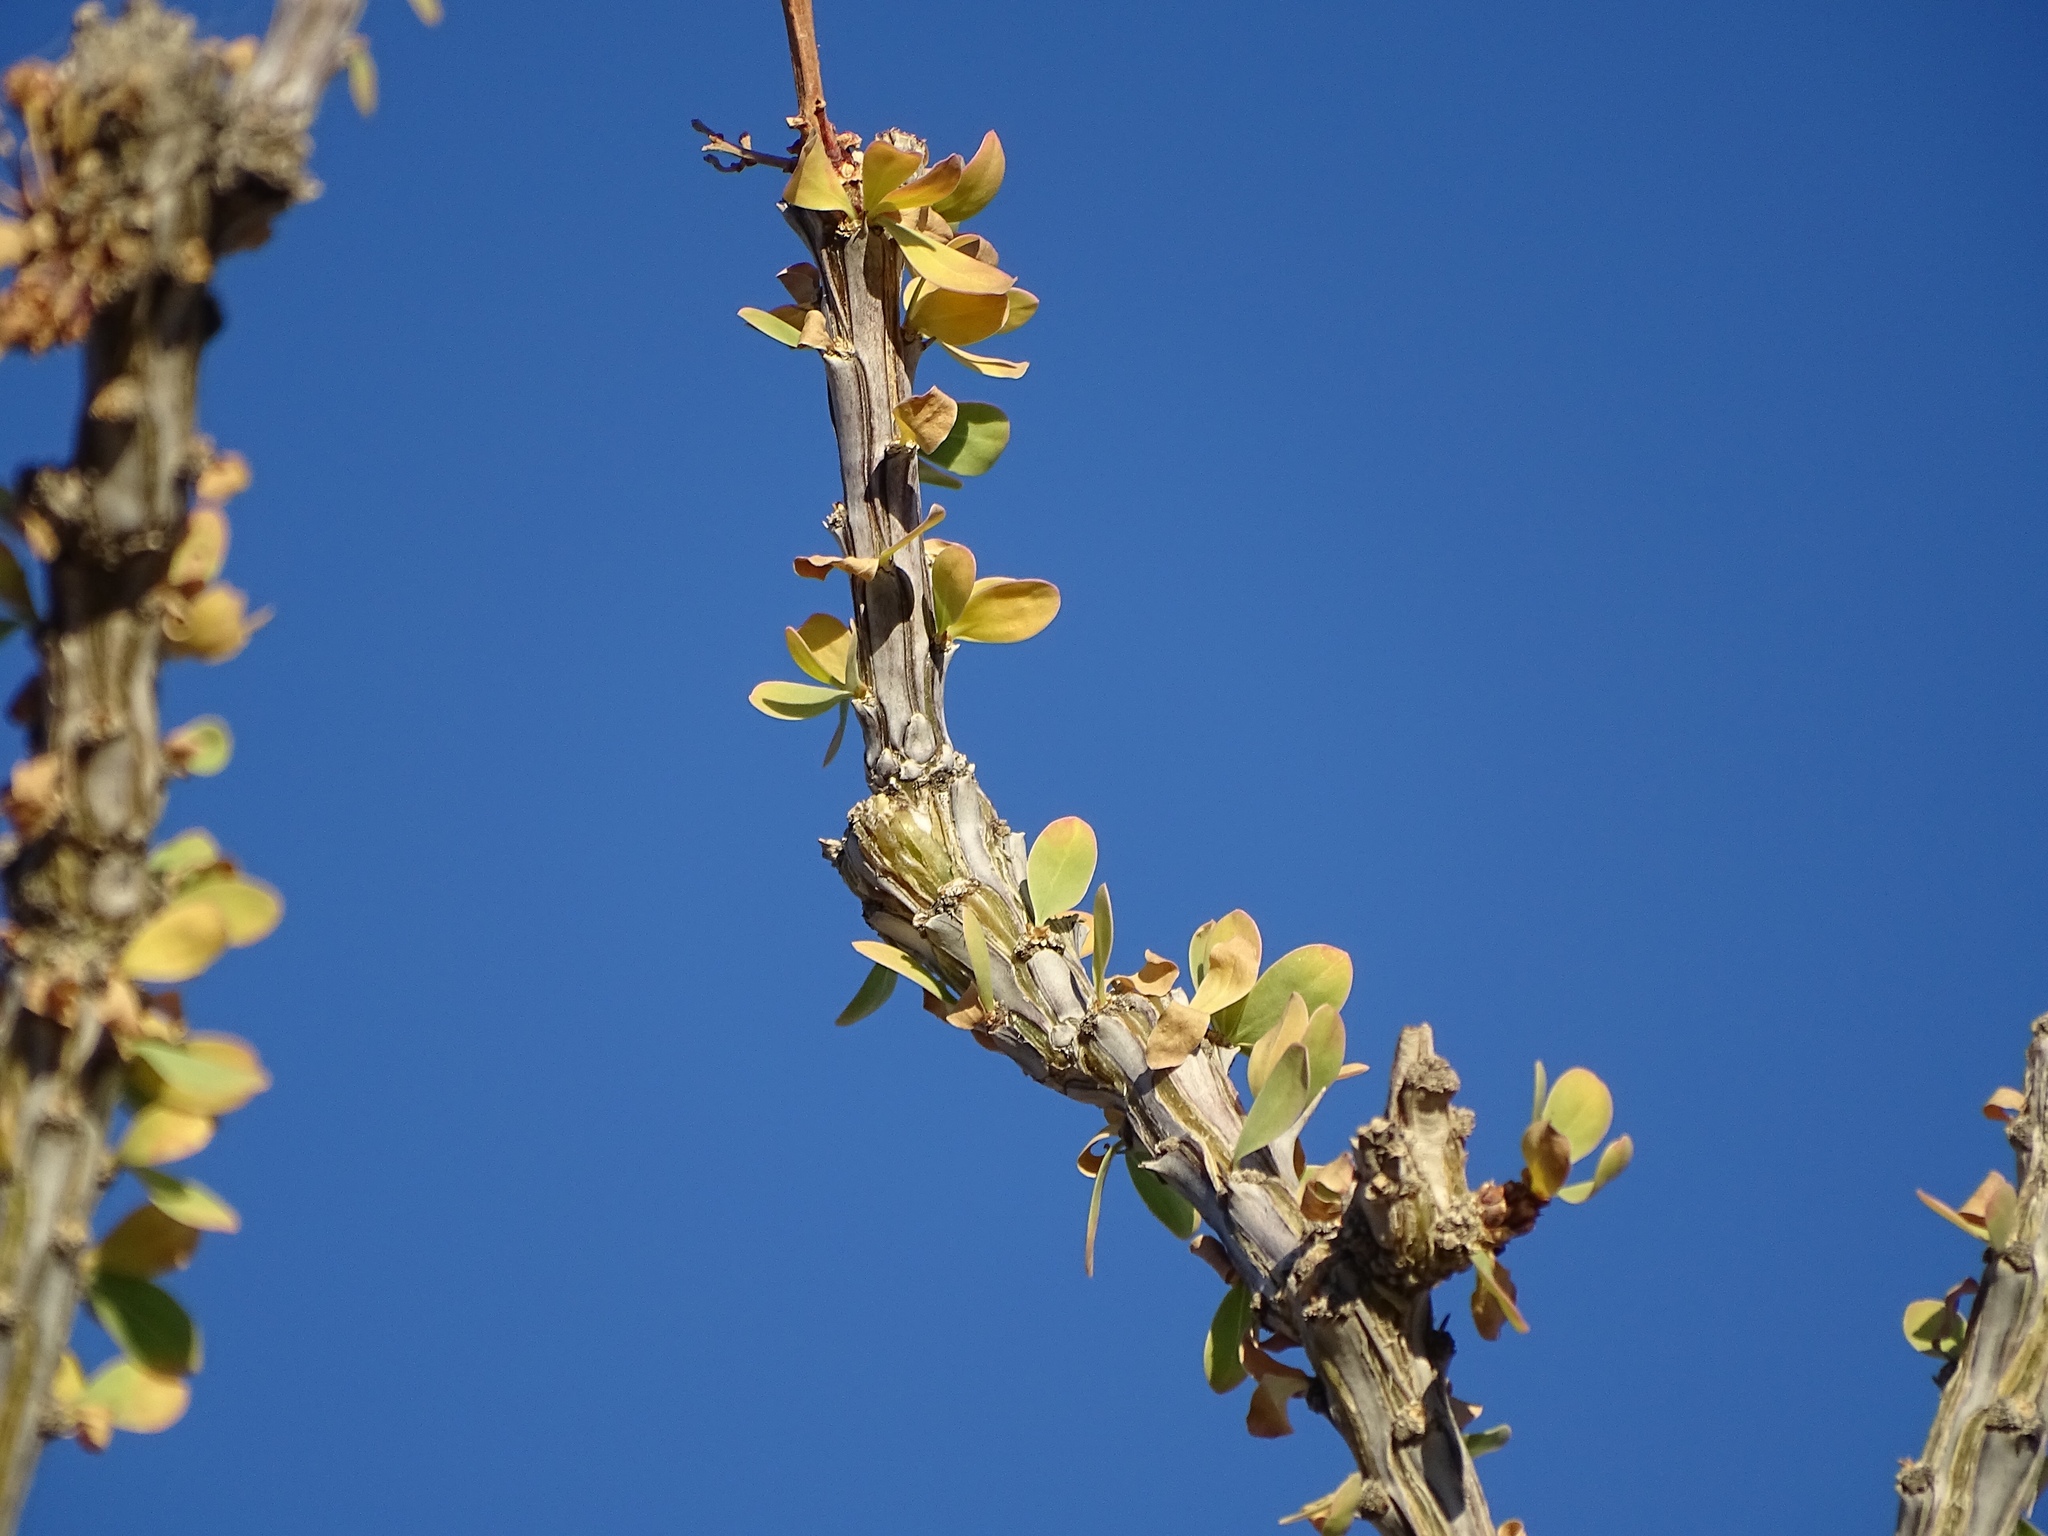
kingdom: Plantae
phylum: Tracheophyta
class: Magnoliopsida
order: Ericales
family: Fouquieriaceae
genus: Fouquieria
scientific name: Fouquieria splendens
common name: Vine-cactus
